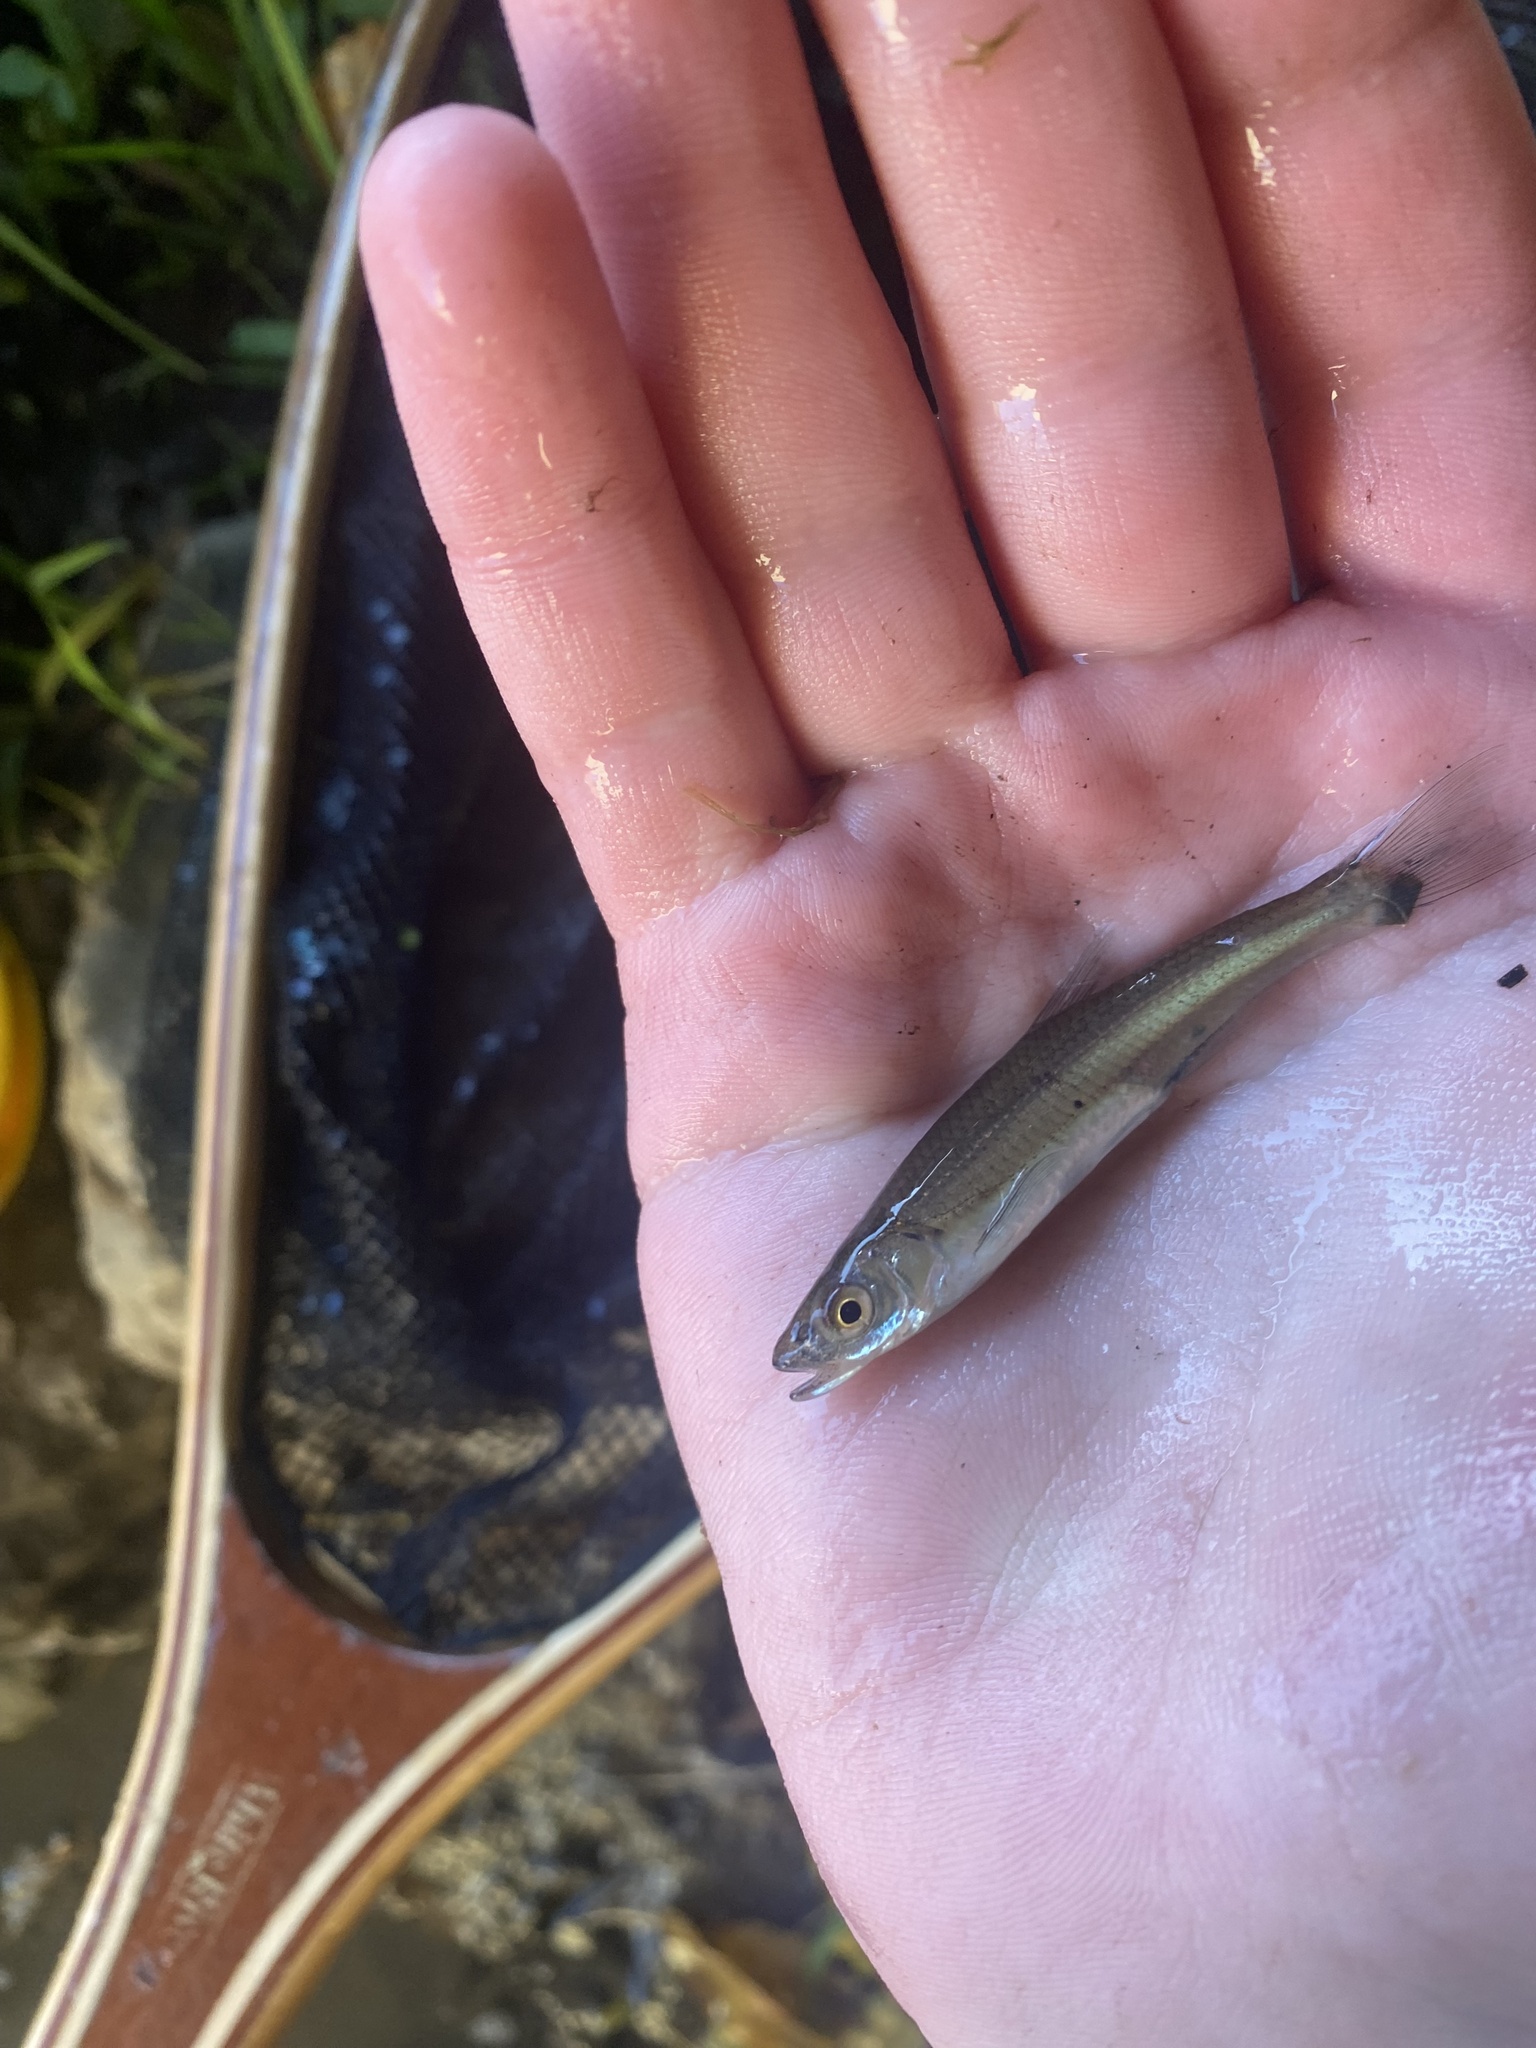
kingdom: Animalia
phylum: Chordata
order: Cypriniformes
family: Cyprinidae
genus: Notropis
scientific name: Notropis percobromus
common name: Carmine shiner
